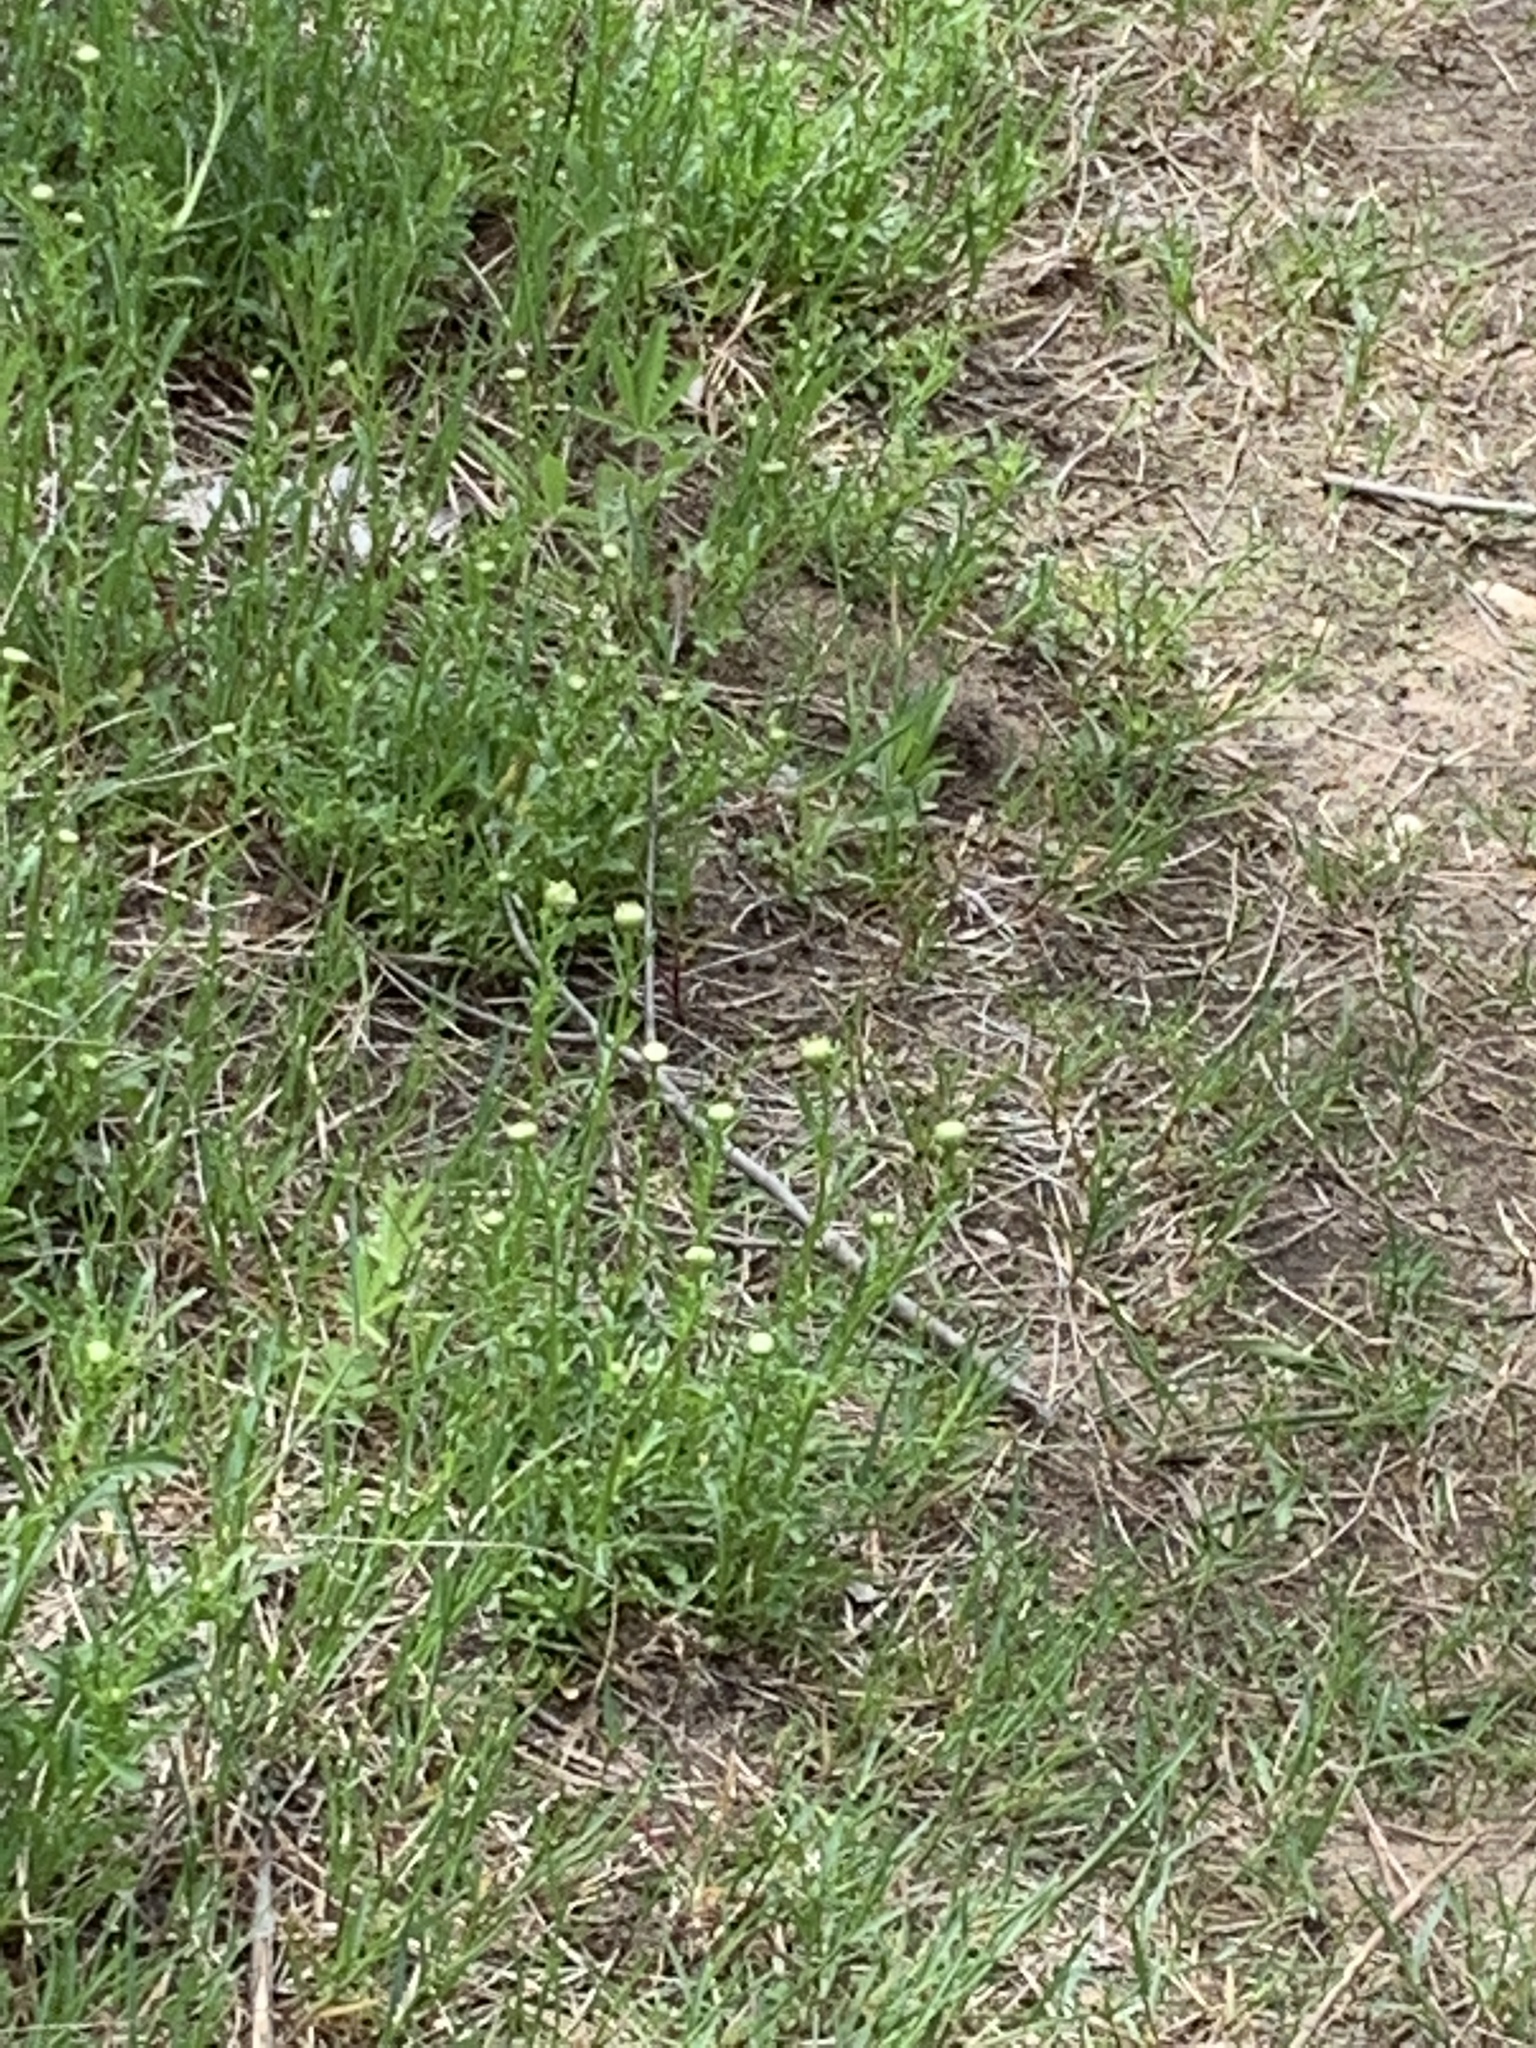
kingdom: Plantae
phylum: Tracheophyta
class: Magnoliopsida
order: Asterales
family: Asteraceae
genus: Leucanthemum
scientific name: Leucanthemum vulgare
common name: Oxeye daisy
